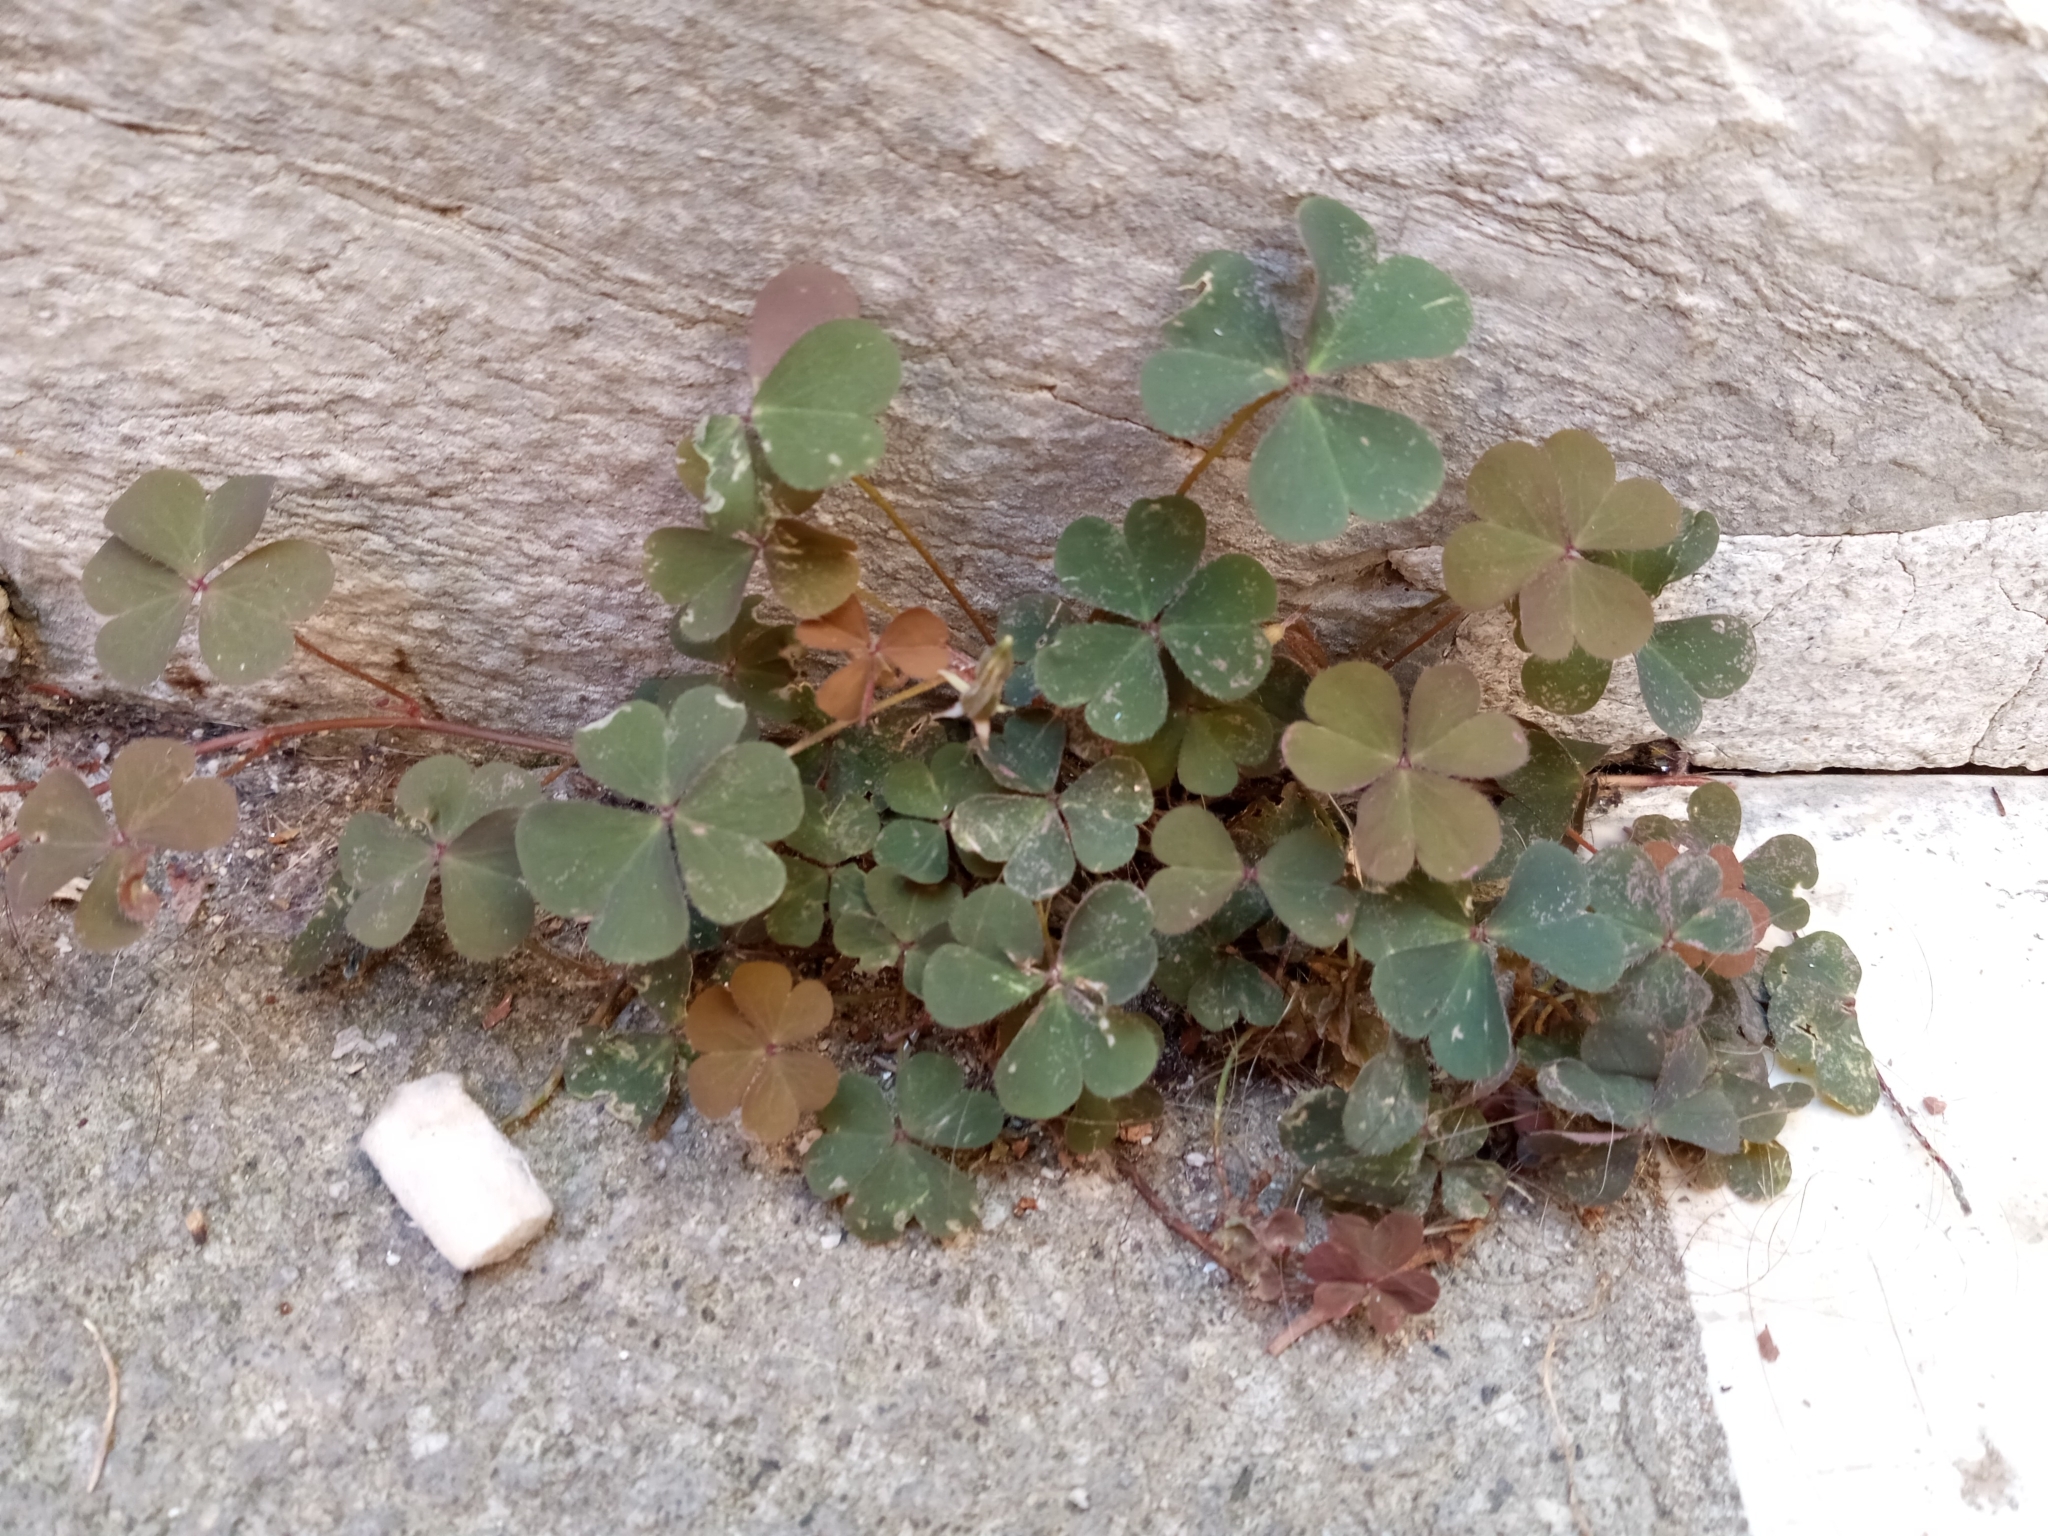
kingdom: Plantae
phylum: Tracheophyta
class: Magnoliopsida
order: Oxalidales
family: Oxalidaceae
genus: Oxalis
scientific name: Oxalis corniculata
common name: Procumbent yellow-sorrel
